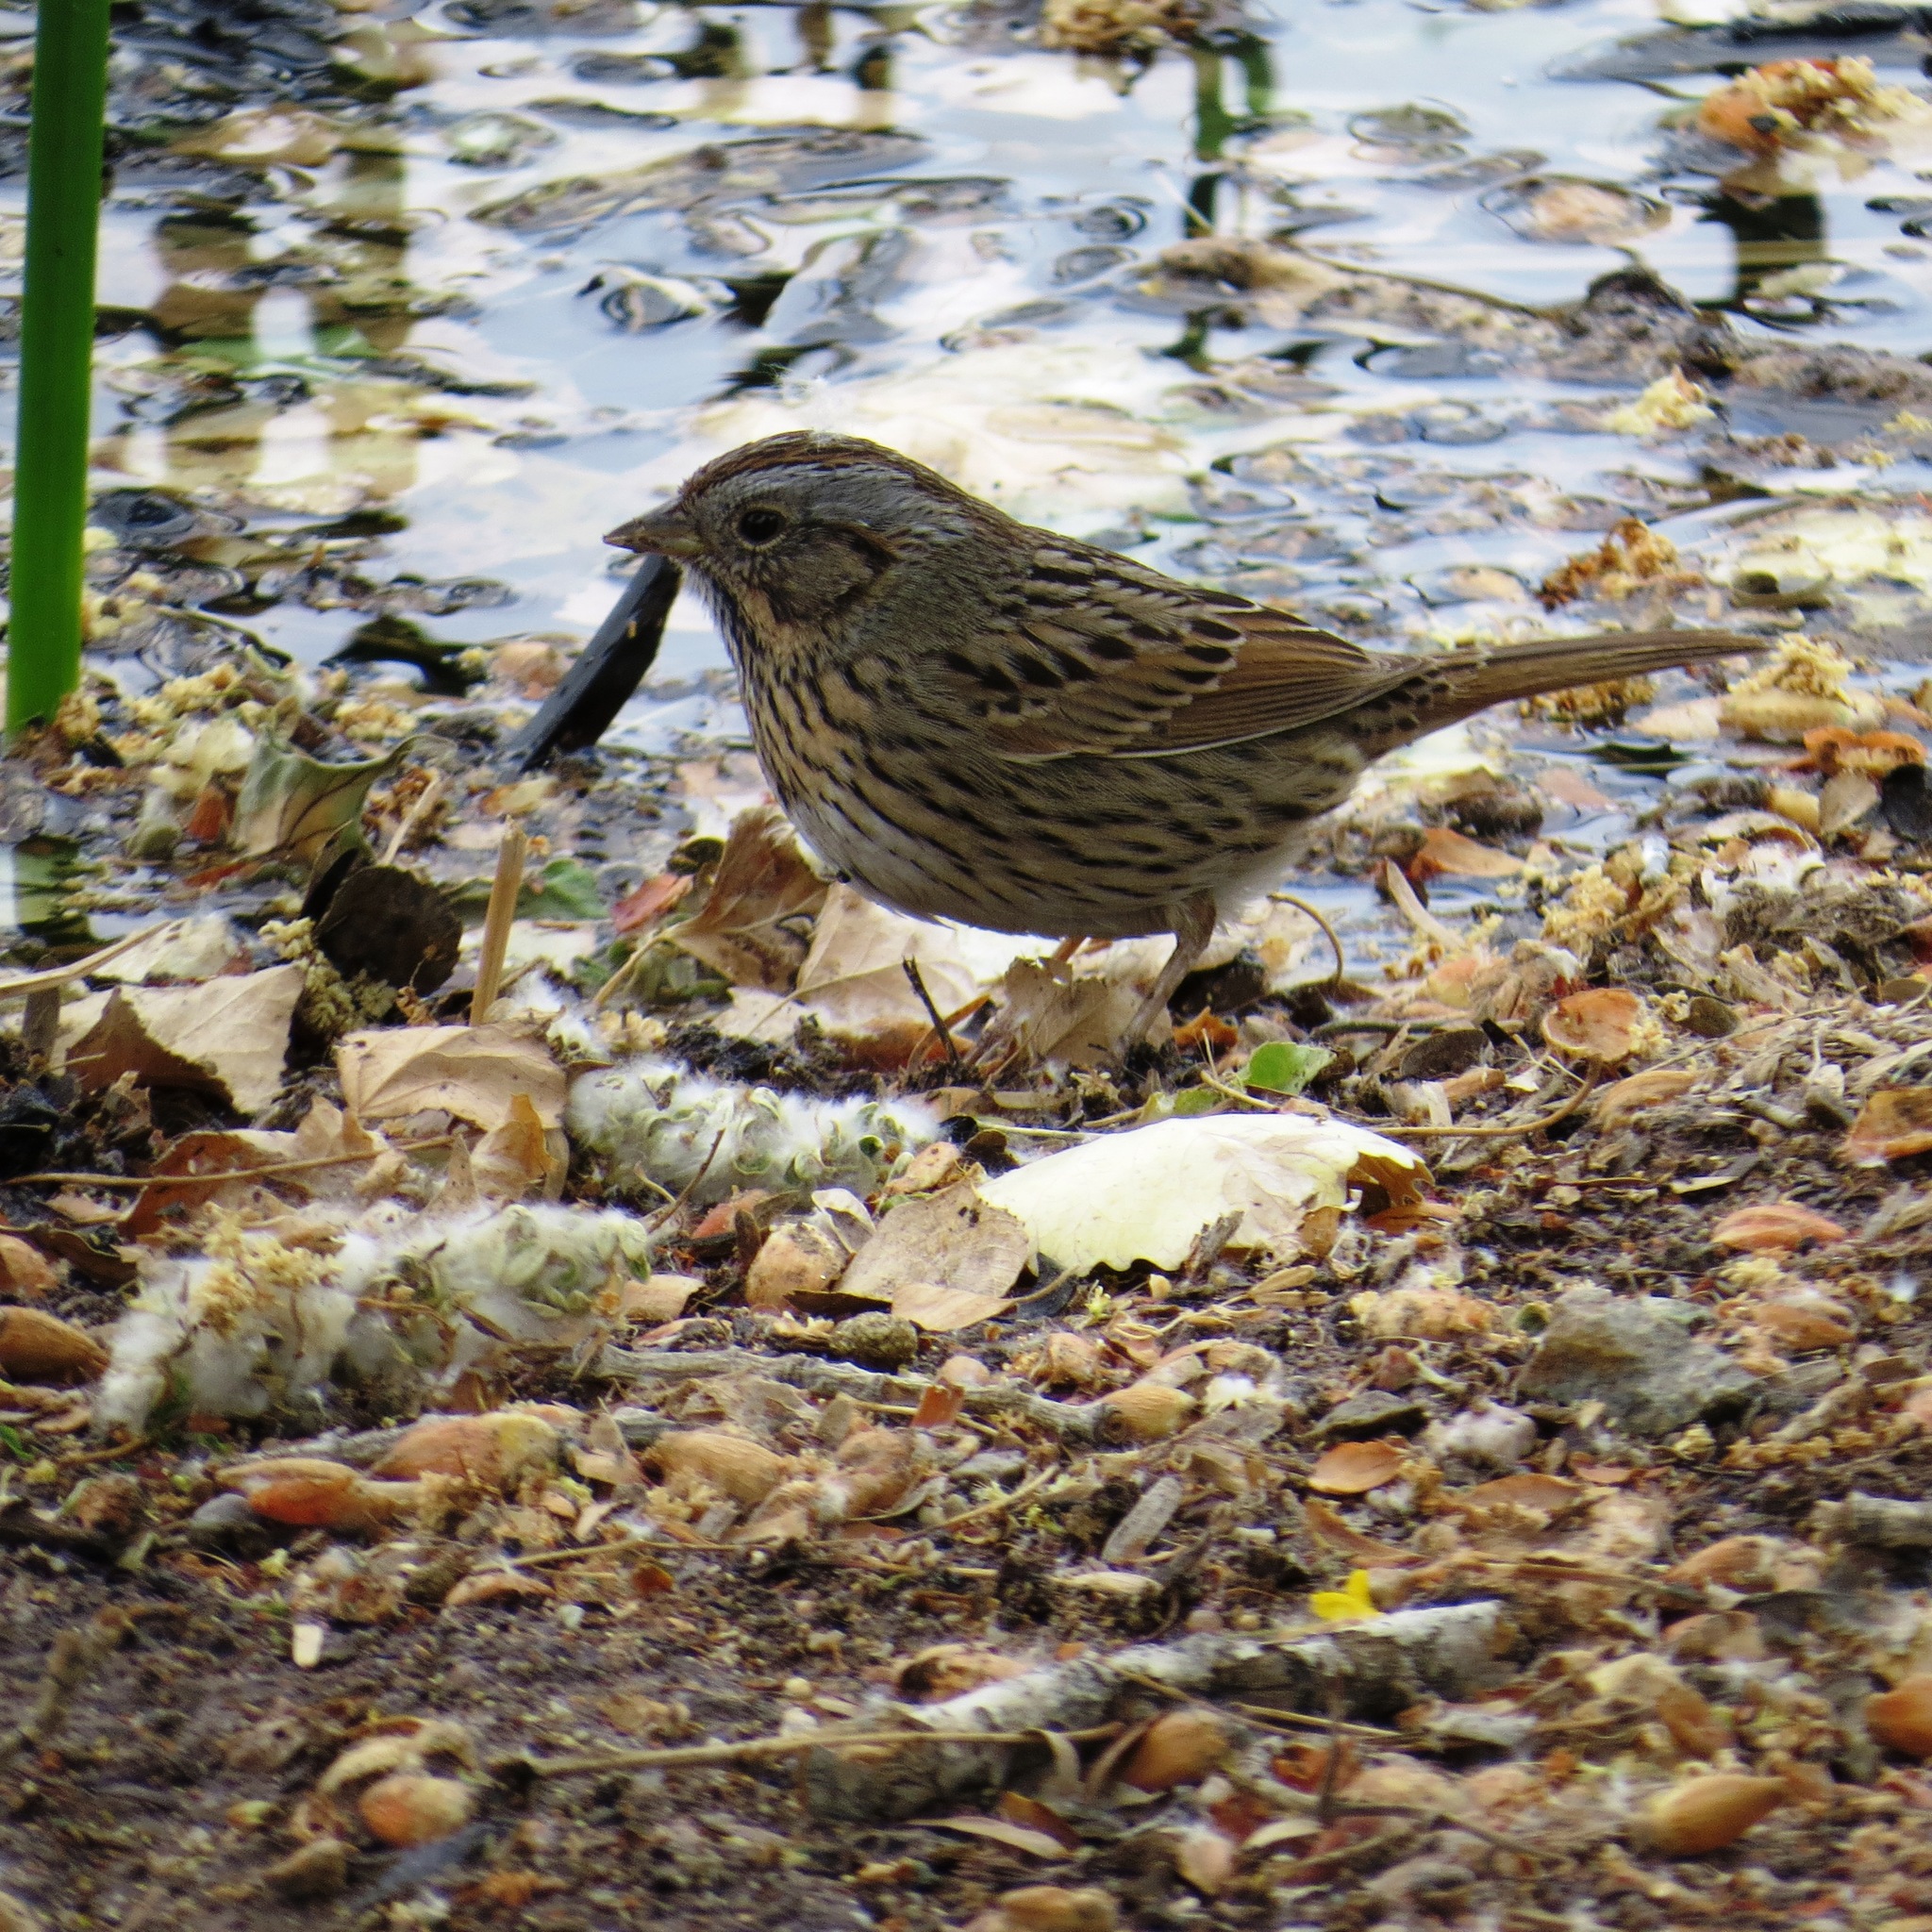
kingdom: Animalia
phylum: Chordata
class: Aves
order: Passeriformes
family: Passerellidae
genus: Melospiza
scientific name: Melospiza lincolnii
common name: Lincoln's sparrow
